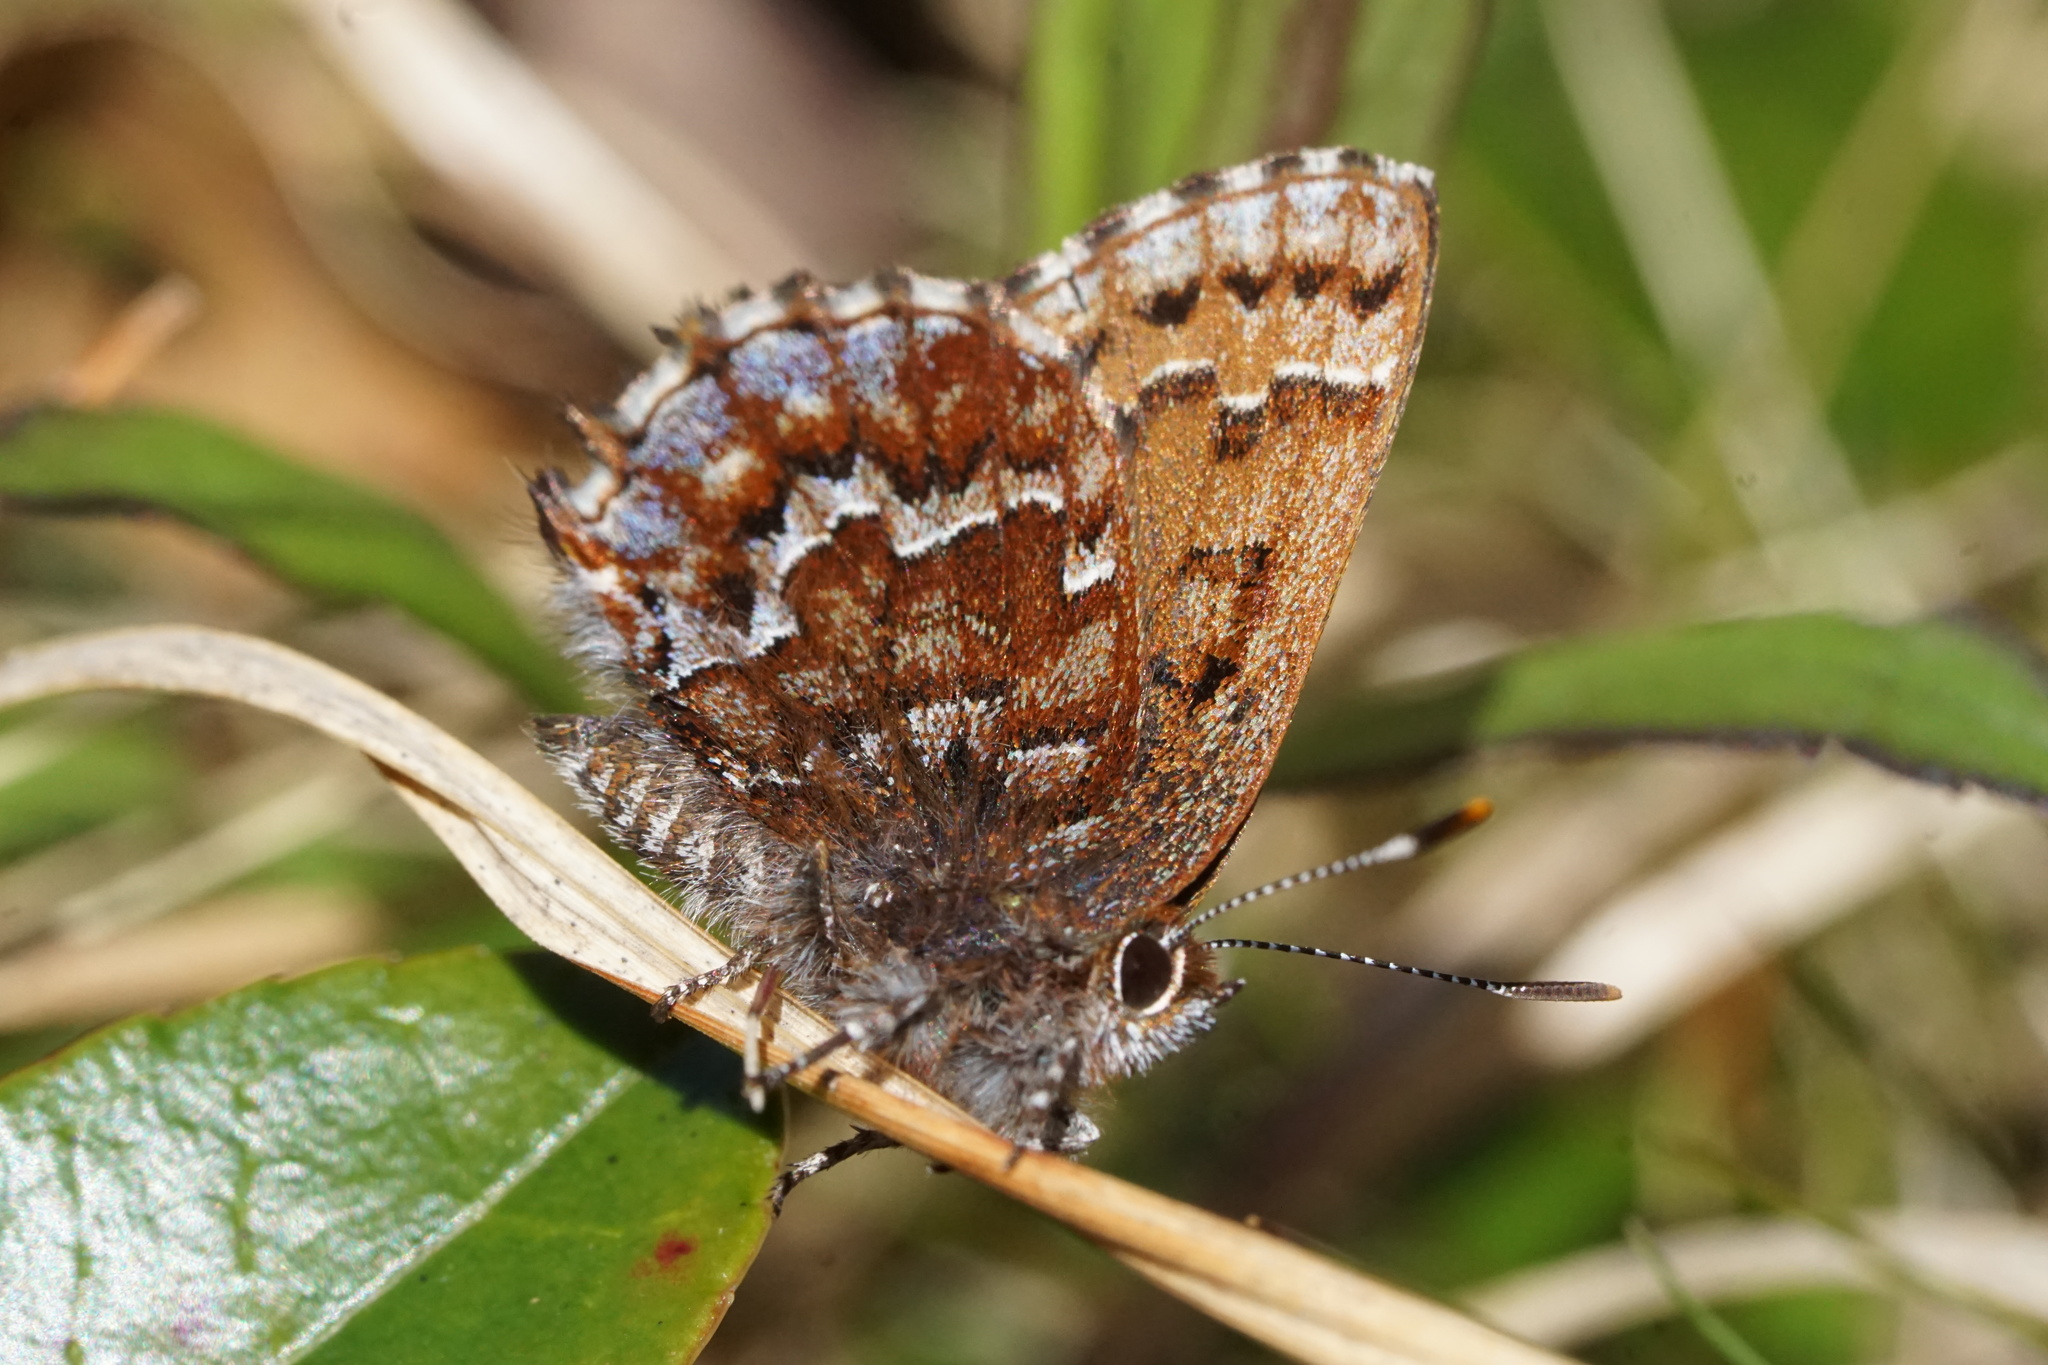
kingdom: Animalia
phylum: Arthropoda
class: Insecta
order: Lepidoptera
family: Lycaenidae
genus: Incisalia
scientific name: Incisalia niphon
